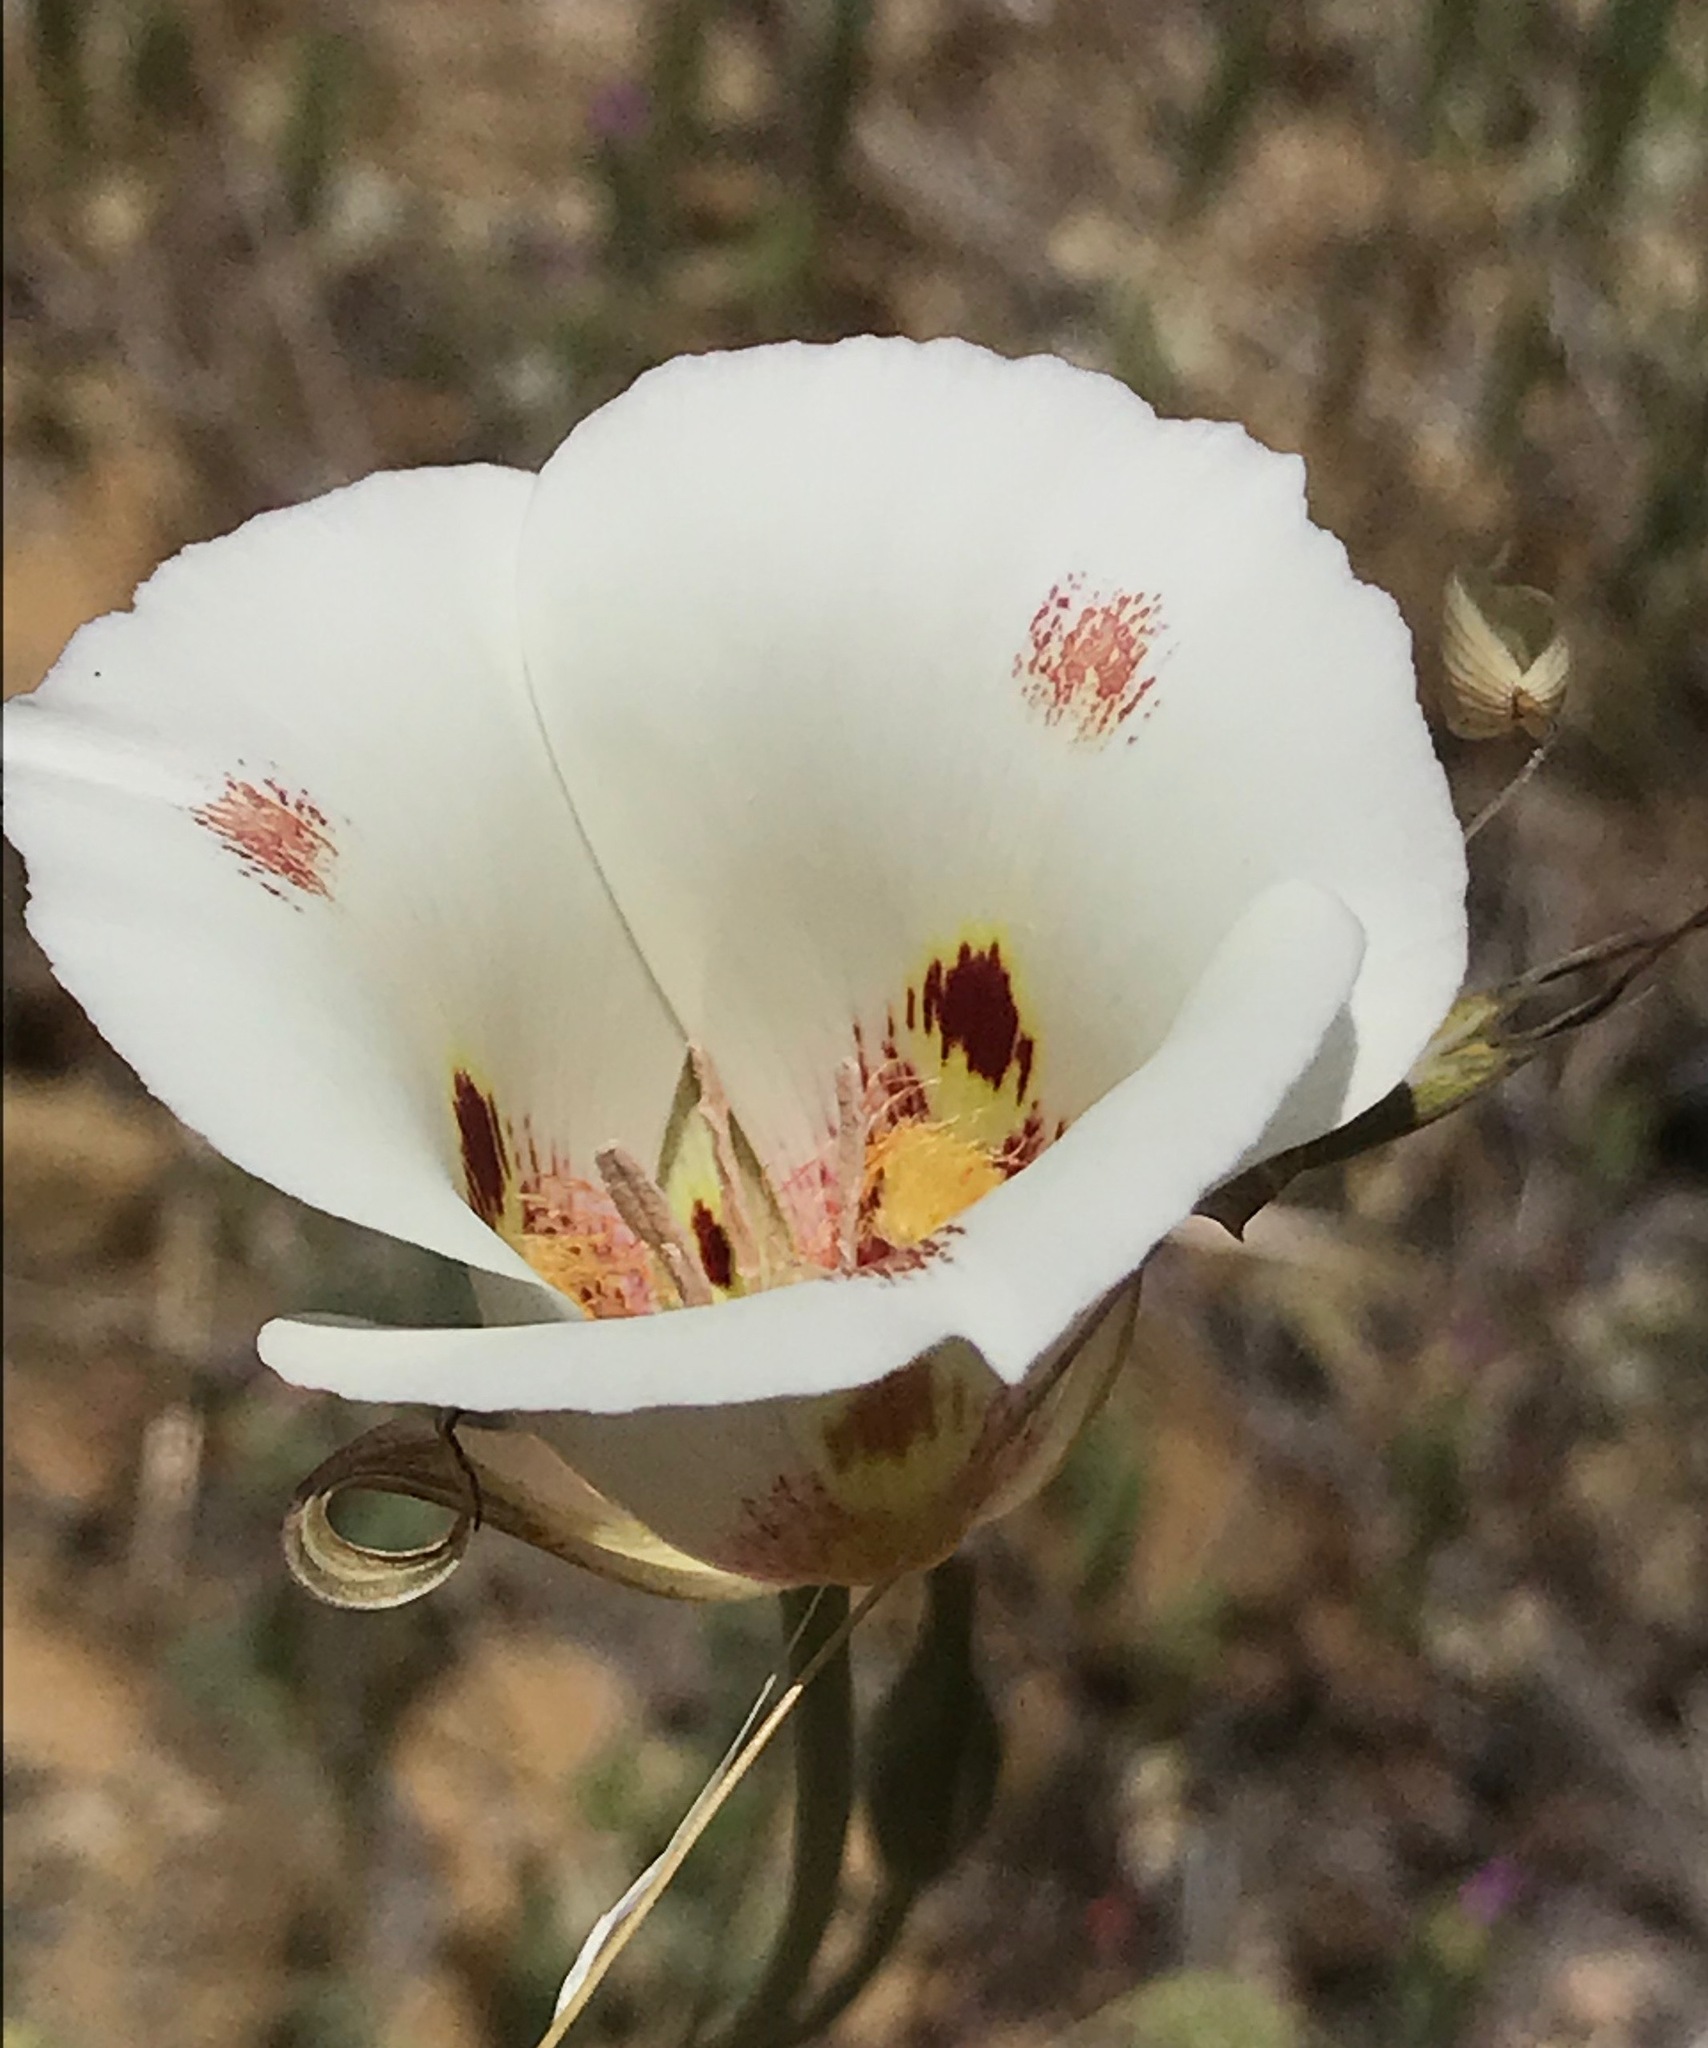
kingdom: Plantae
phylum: Tracheophyta
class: Liliopsida
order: Liliales
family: Liliaceae
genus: Calochortus
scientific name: Calochortus venustus
